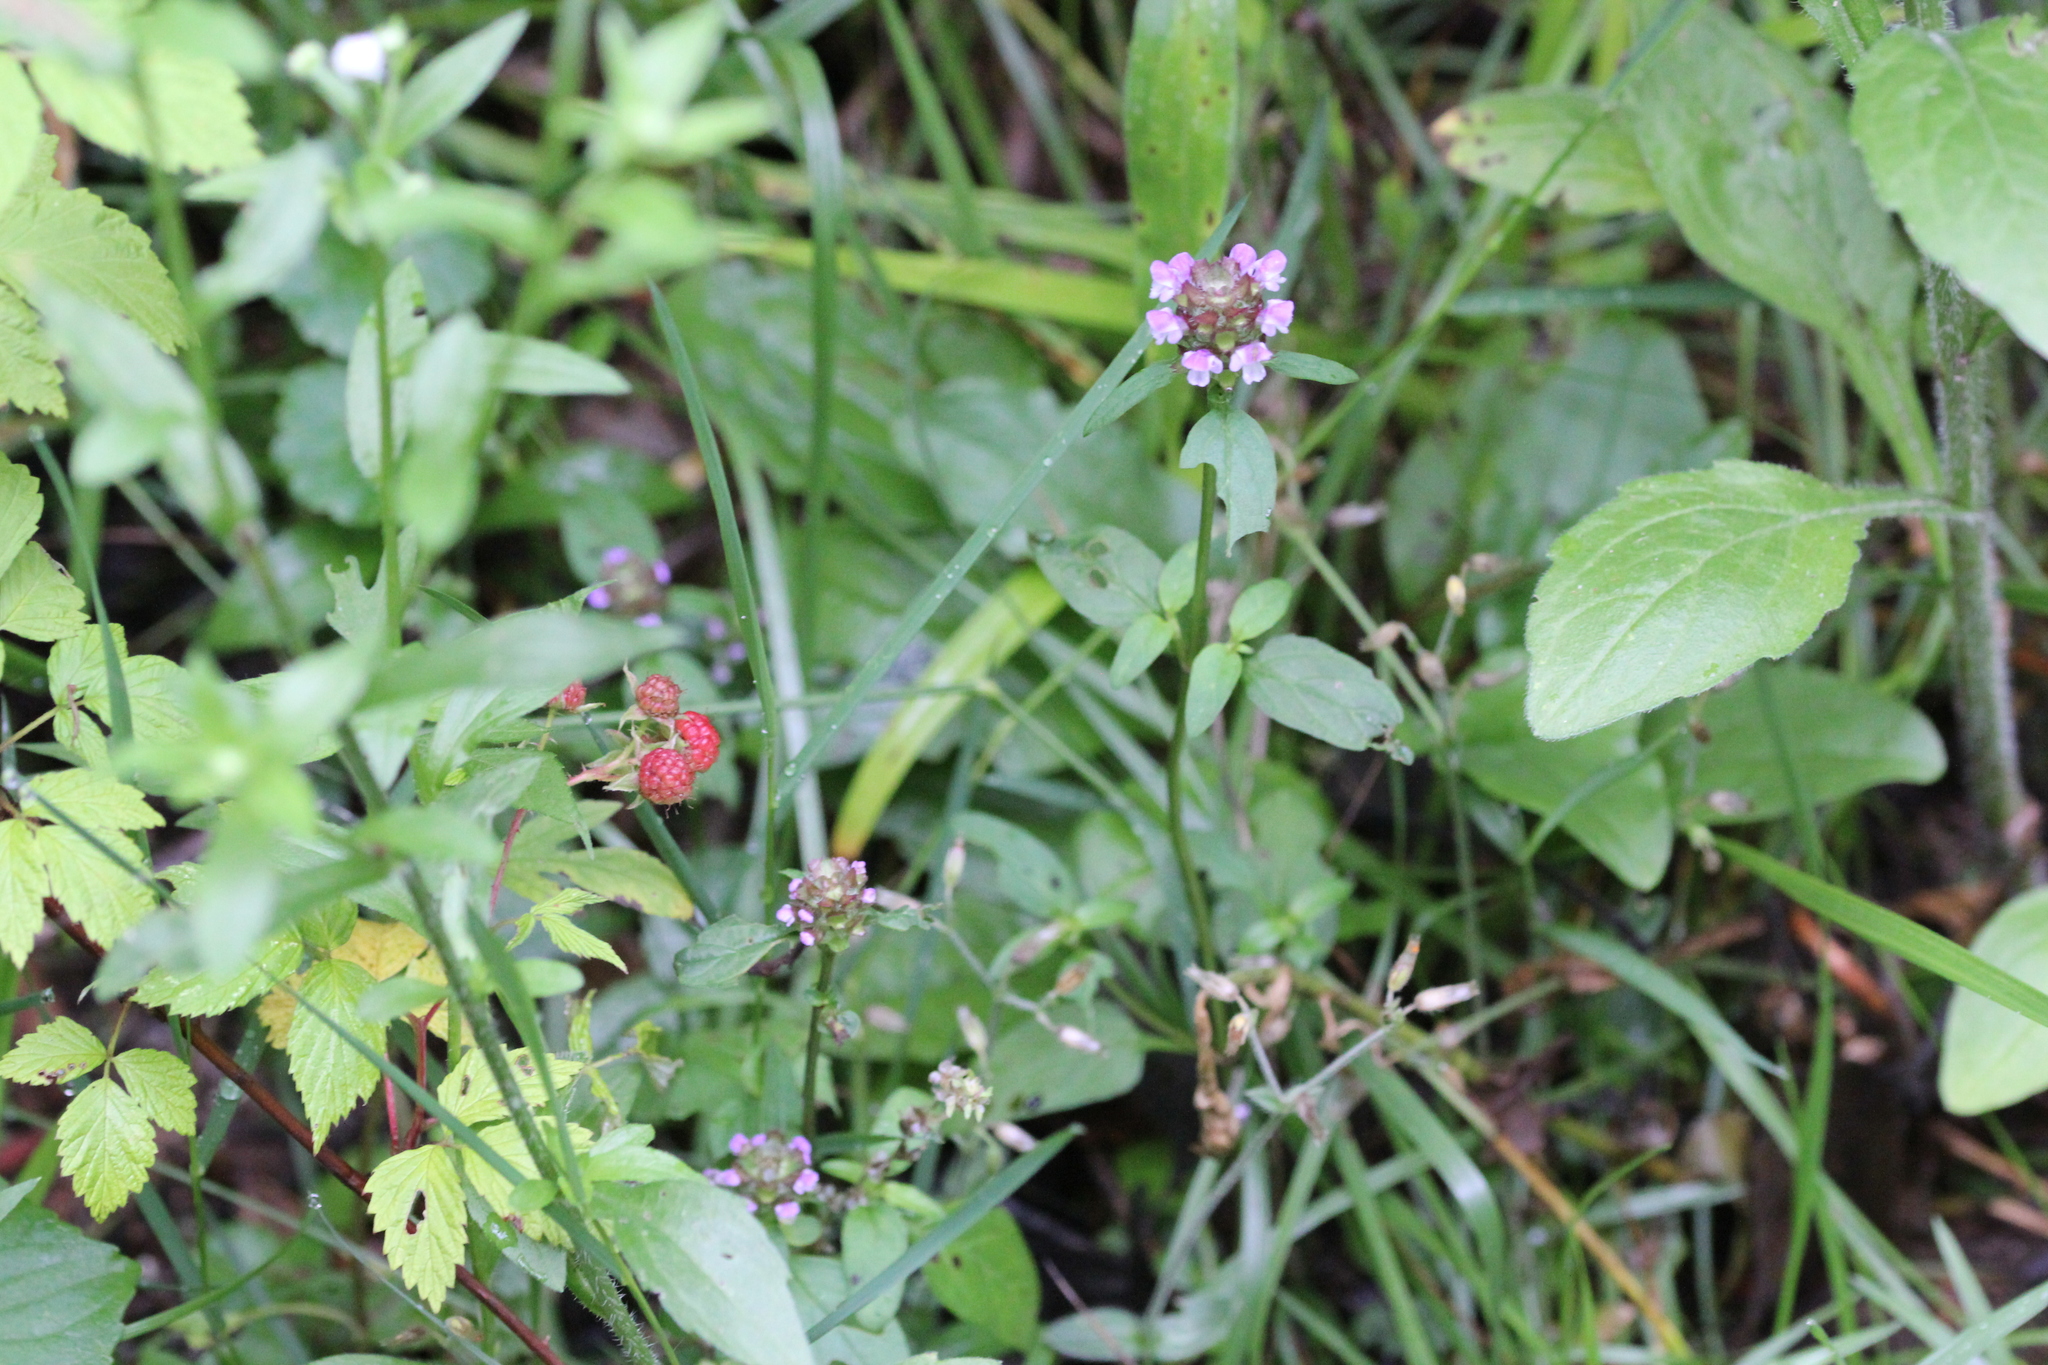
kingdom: Plantae
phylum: Tracheophyta
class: Magnoliopsida
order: Lamiales
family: Lamiaceae
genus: Prunella
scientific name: Prunella vulgaris
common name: Heal-all
